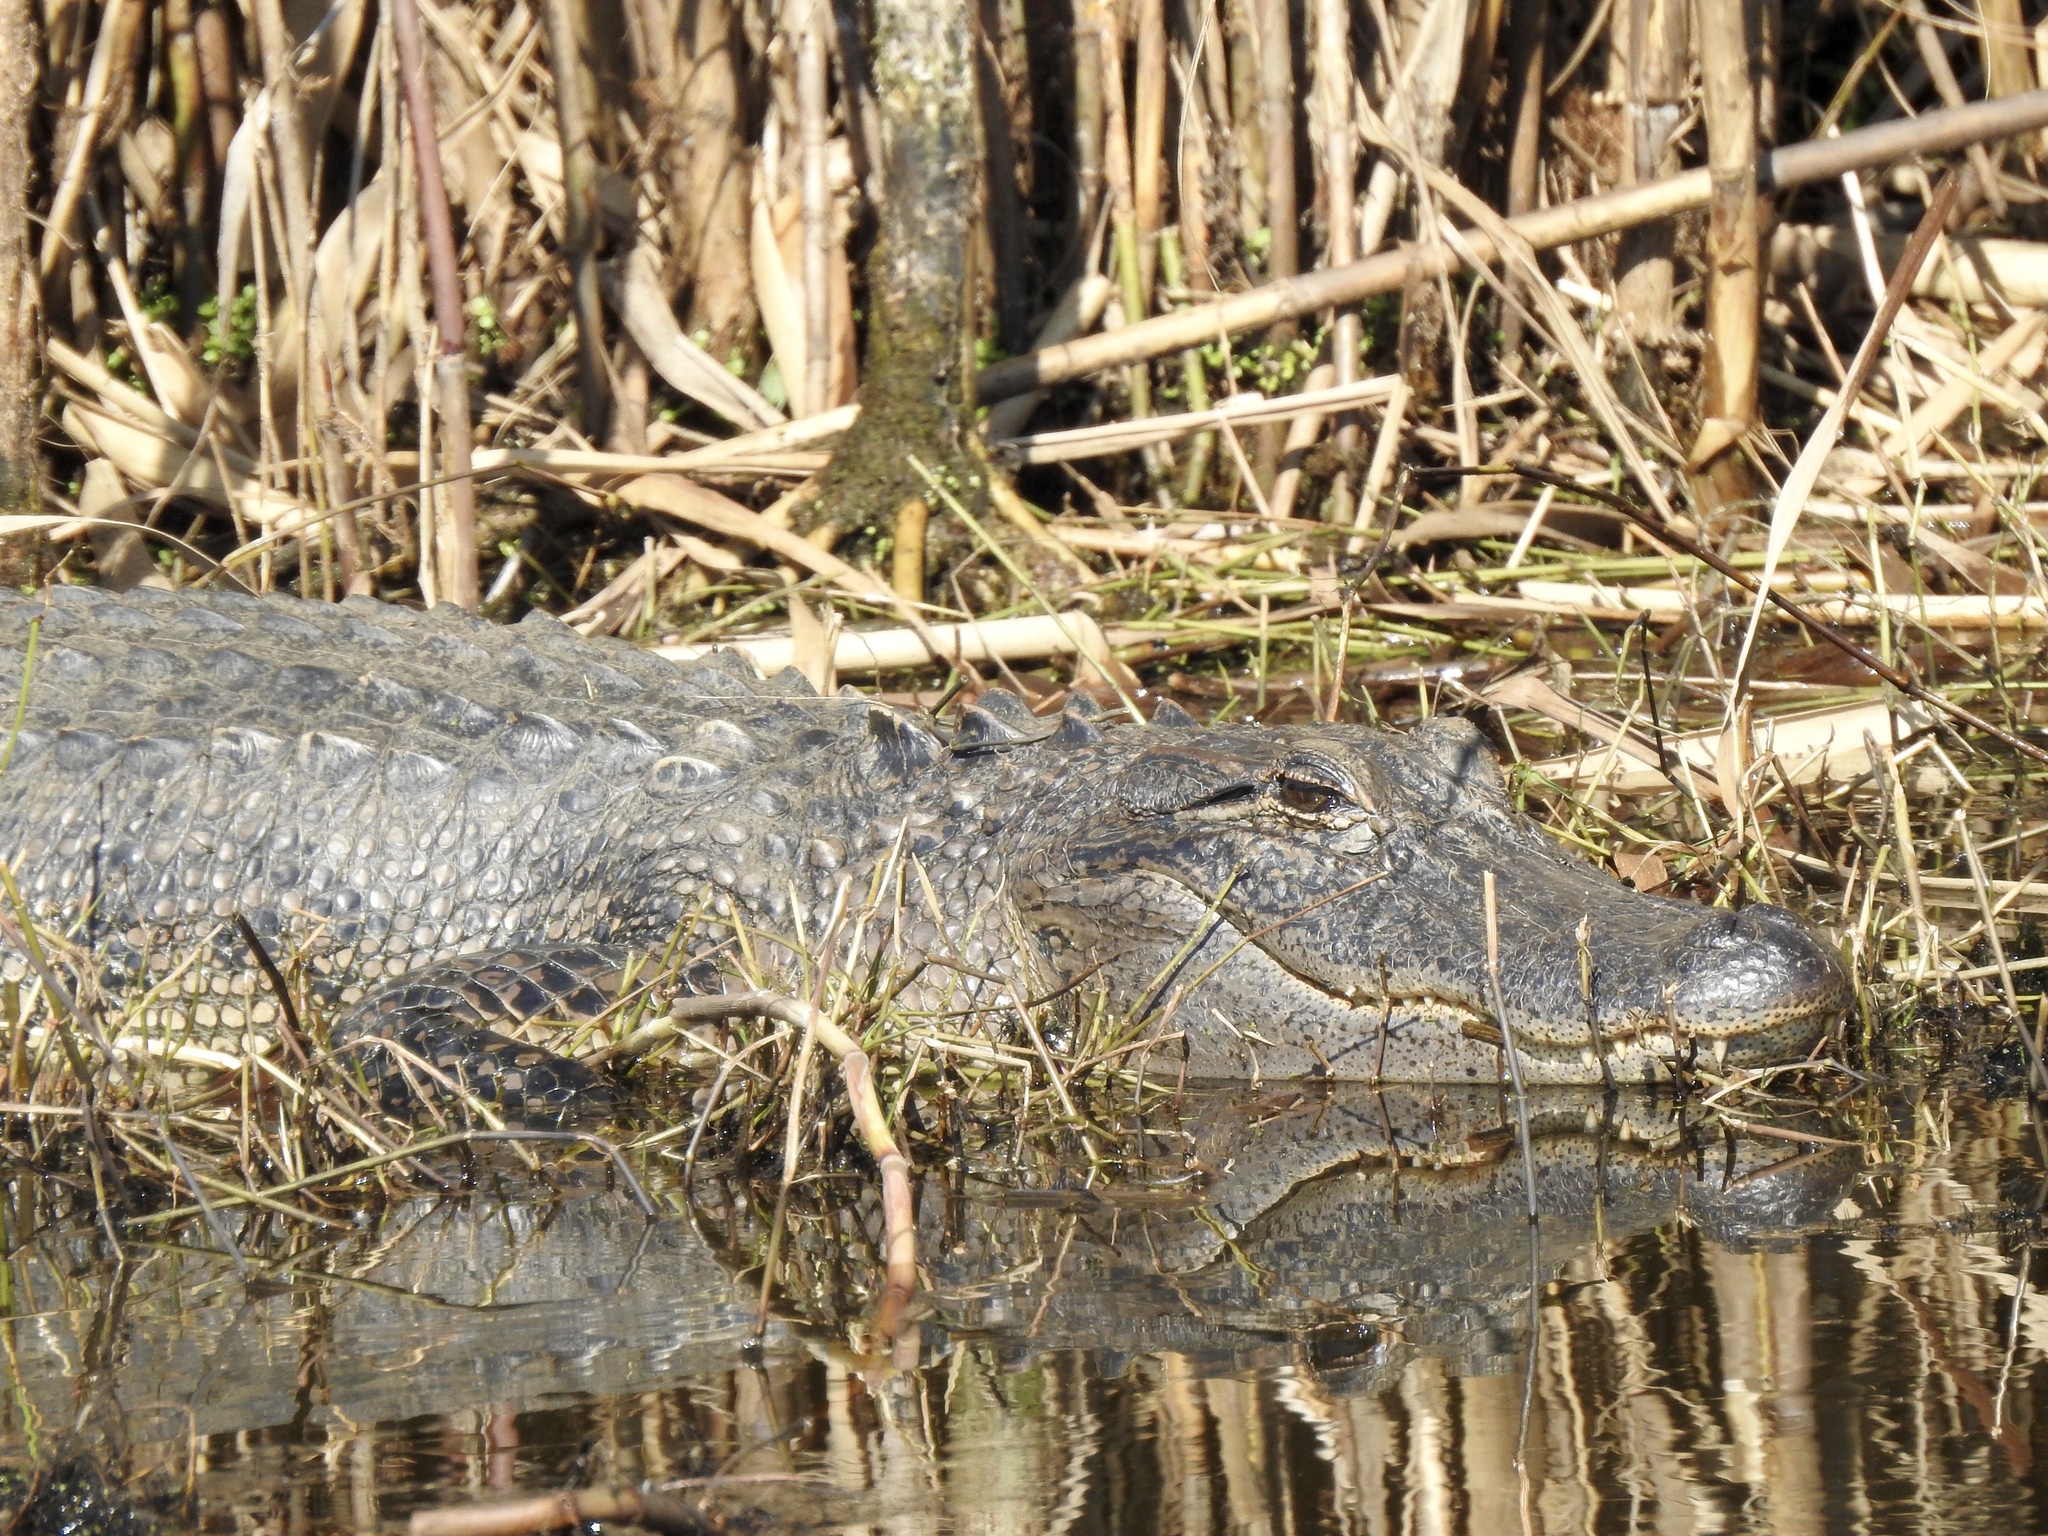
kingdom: Animalia
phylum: Chordata
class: Crocodylia
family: Alligatoridae
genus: Alligator
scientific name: Alligator mississippiensis
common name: American alligator
